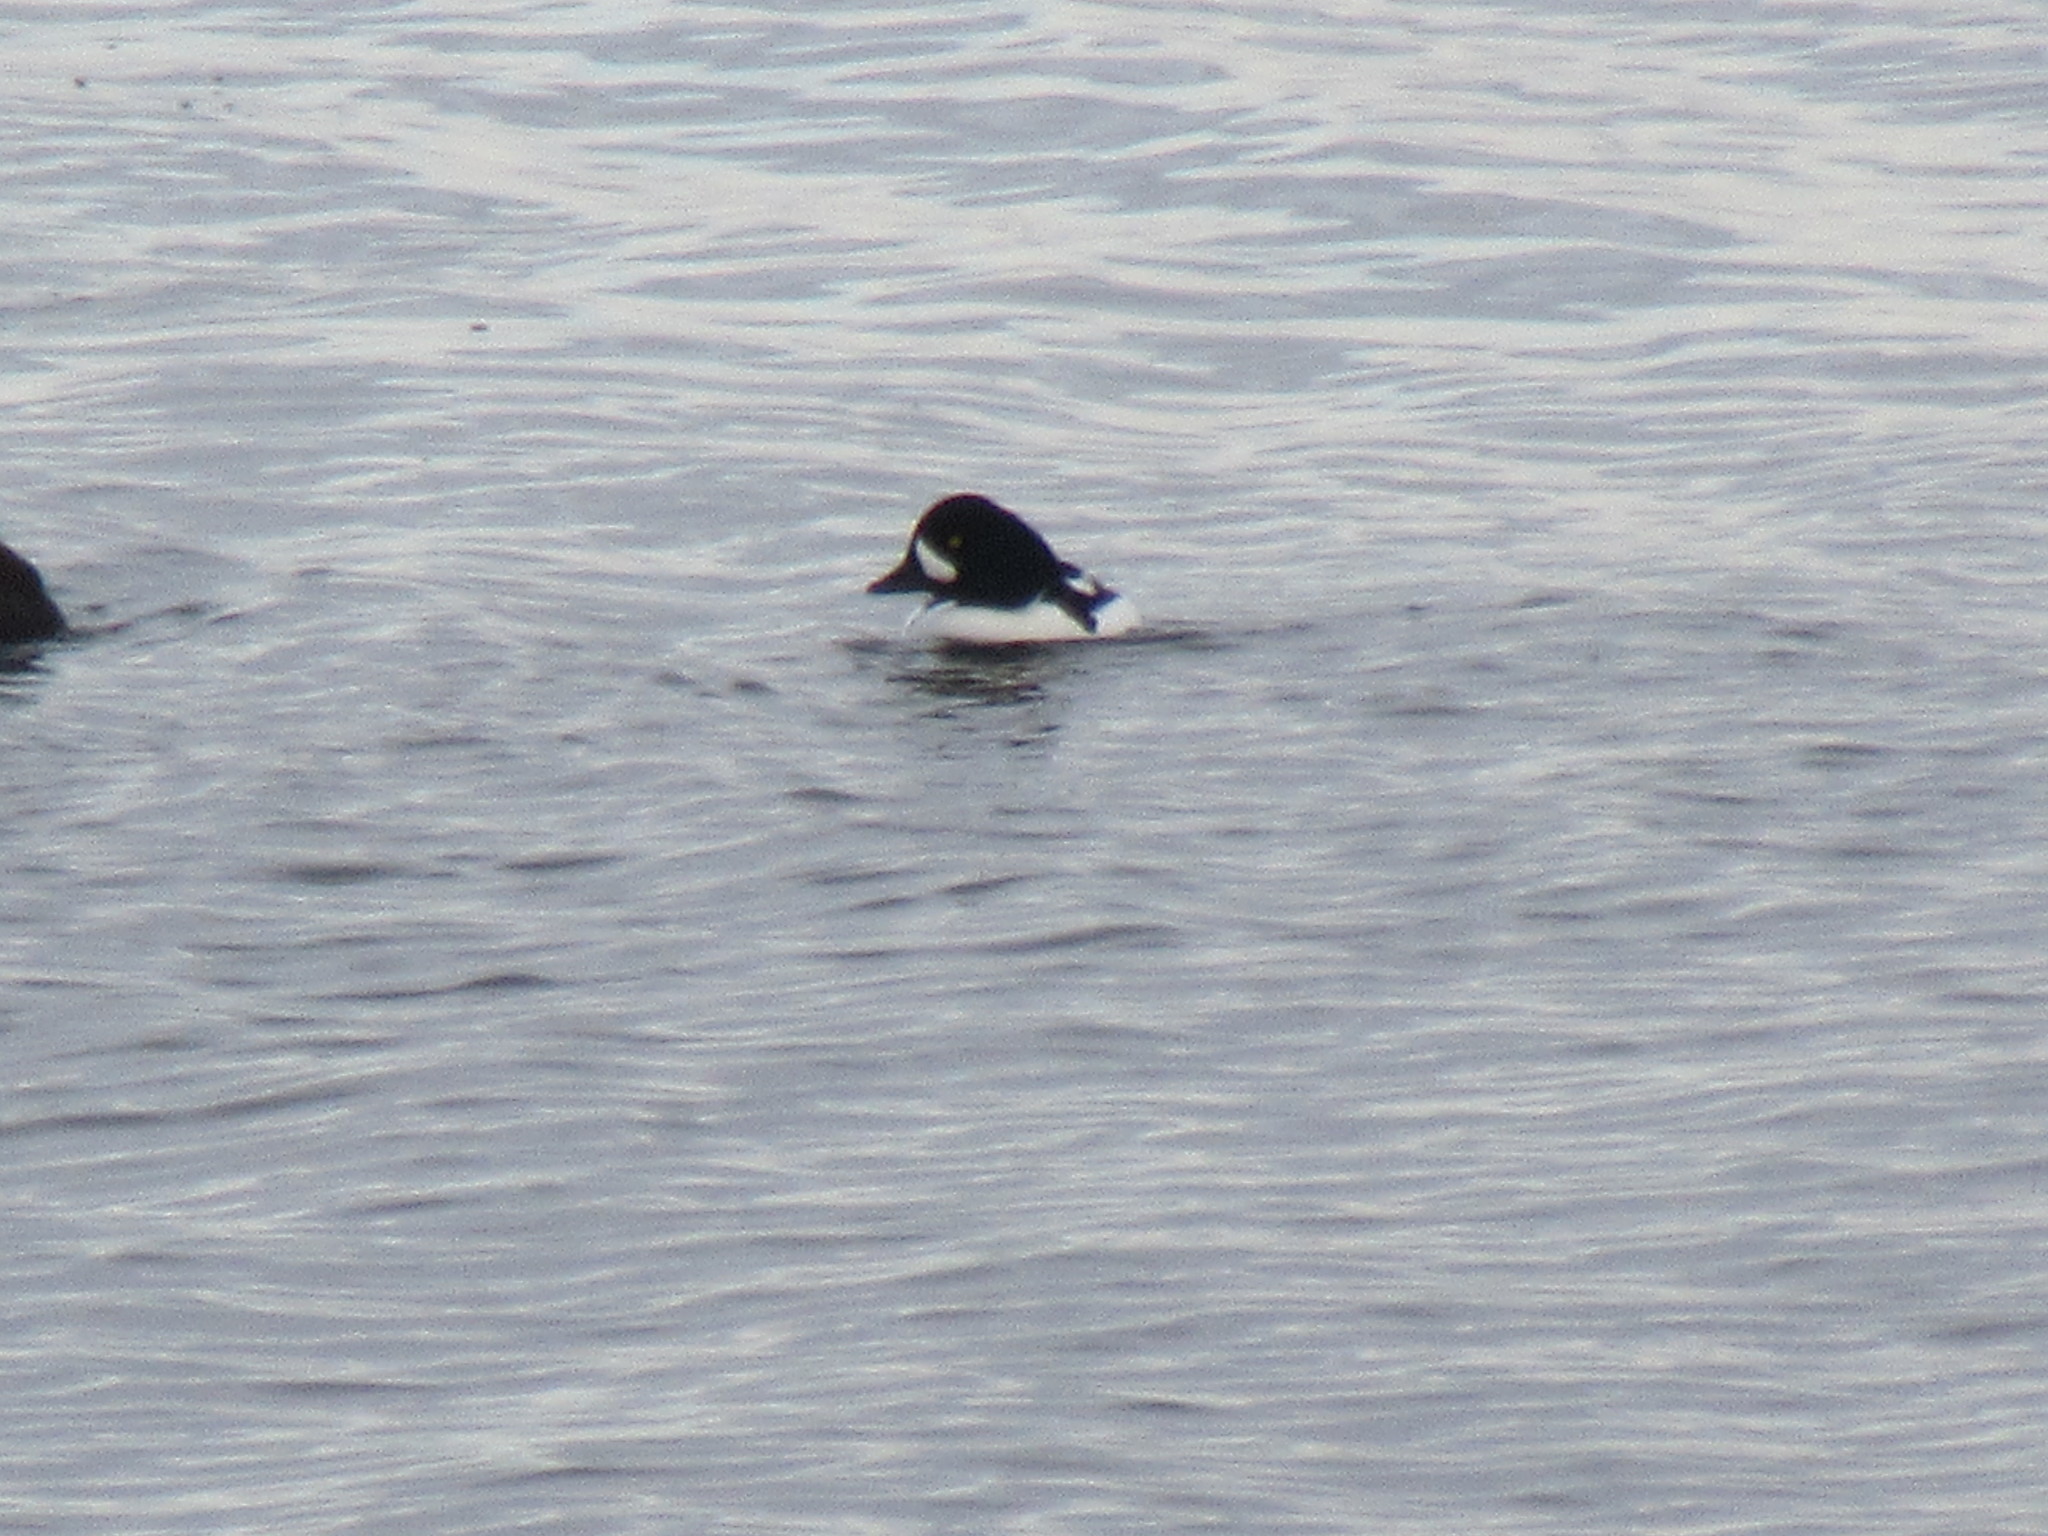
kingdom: Animalia
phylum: Chordata
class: Aves
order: Anseriformes
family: Anatidae
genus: Bucephala
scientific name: Bucephala islandica
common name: Barrow's goldeneye
